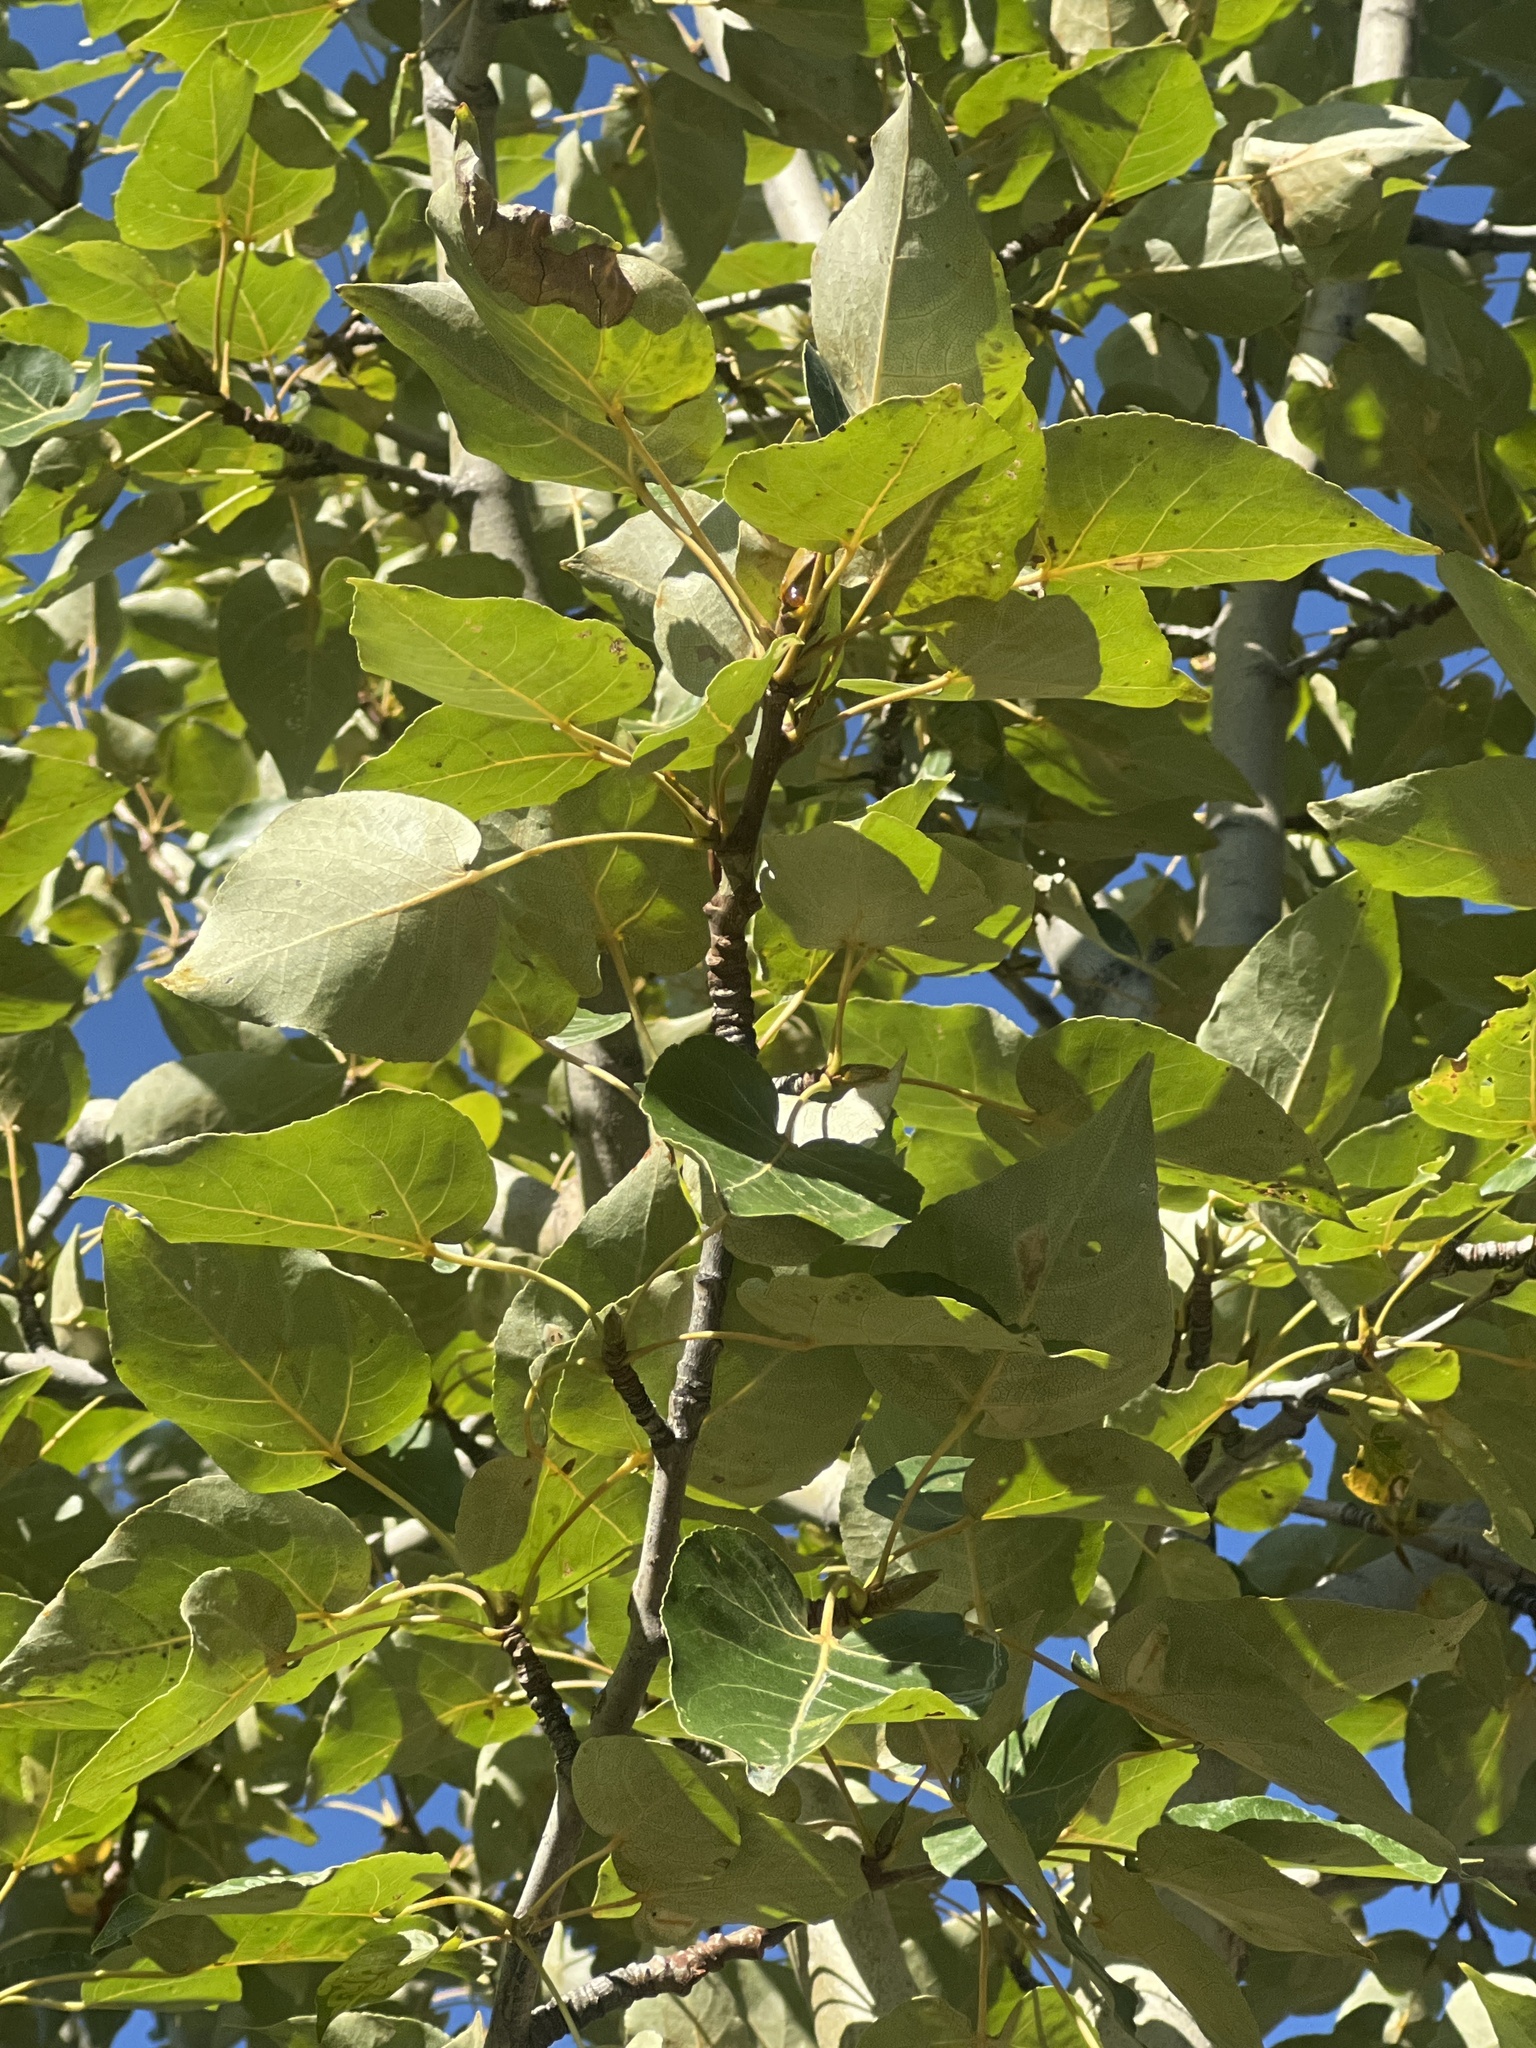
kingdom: Plantae
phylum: Tracheophyta
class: Magnoliopsida
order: Malpighiales
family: Salicaceae
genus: Populus
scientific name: Populus balsamifera
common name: Balsam poplar
